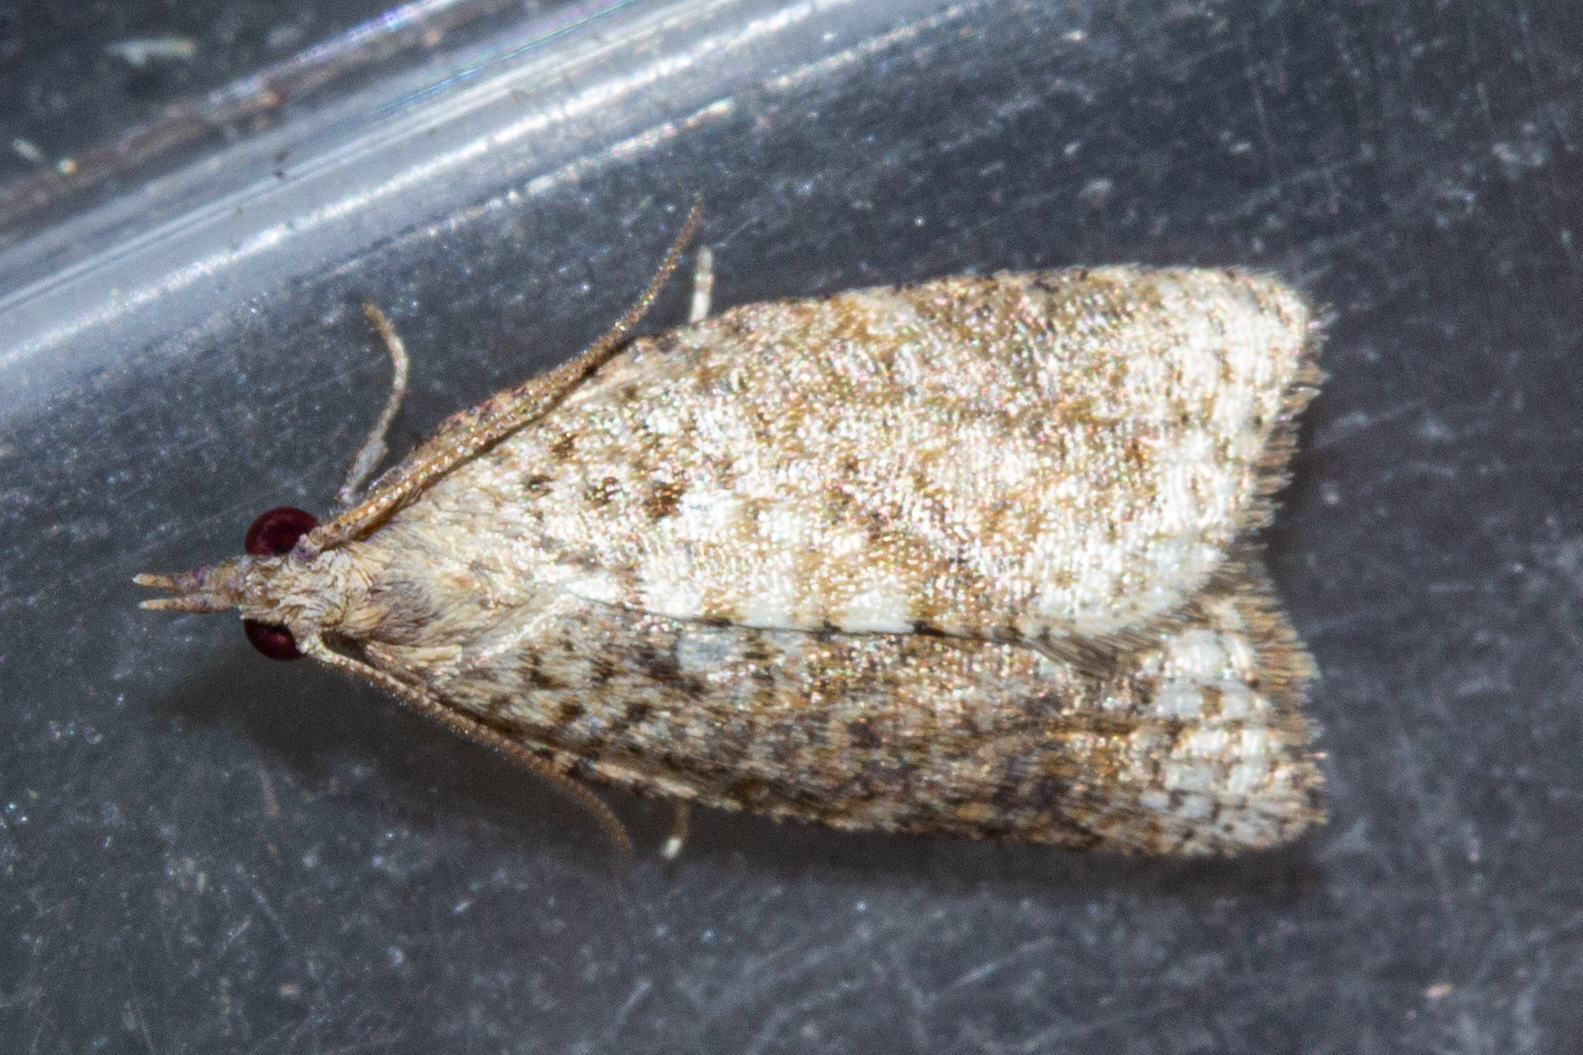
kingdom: Animalia
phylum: Arthropoda
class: Insecta
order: Lepidoptera
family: Tortricidae
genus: Catamacta
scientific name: Catamacta gavisana
